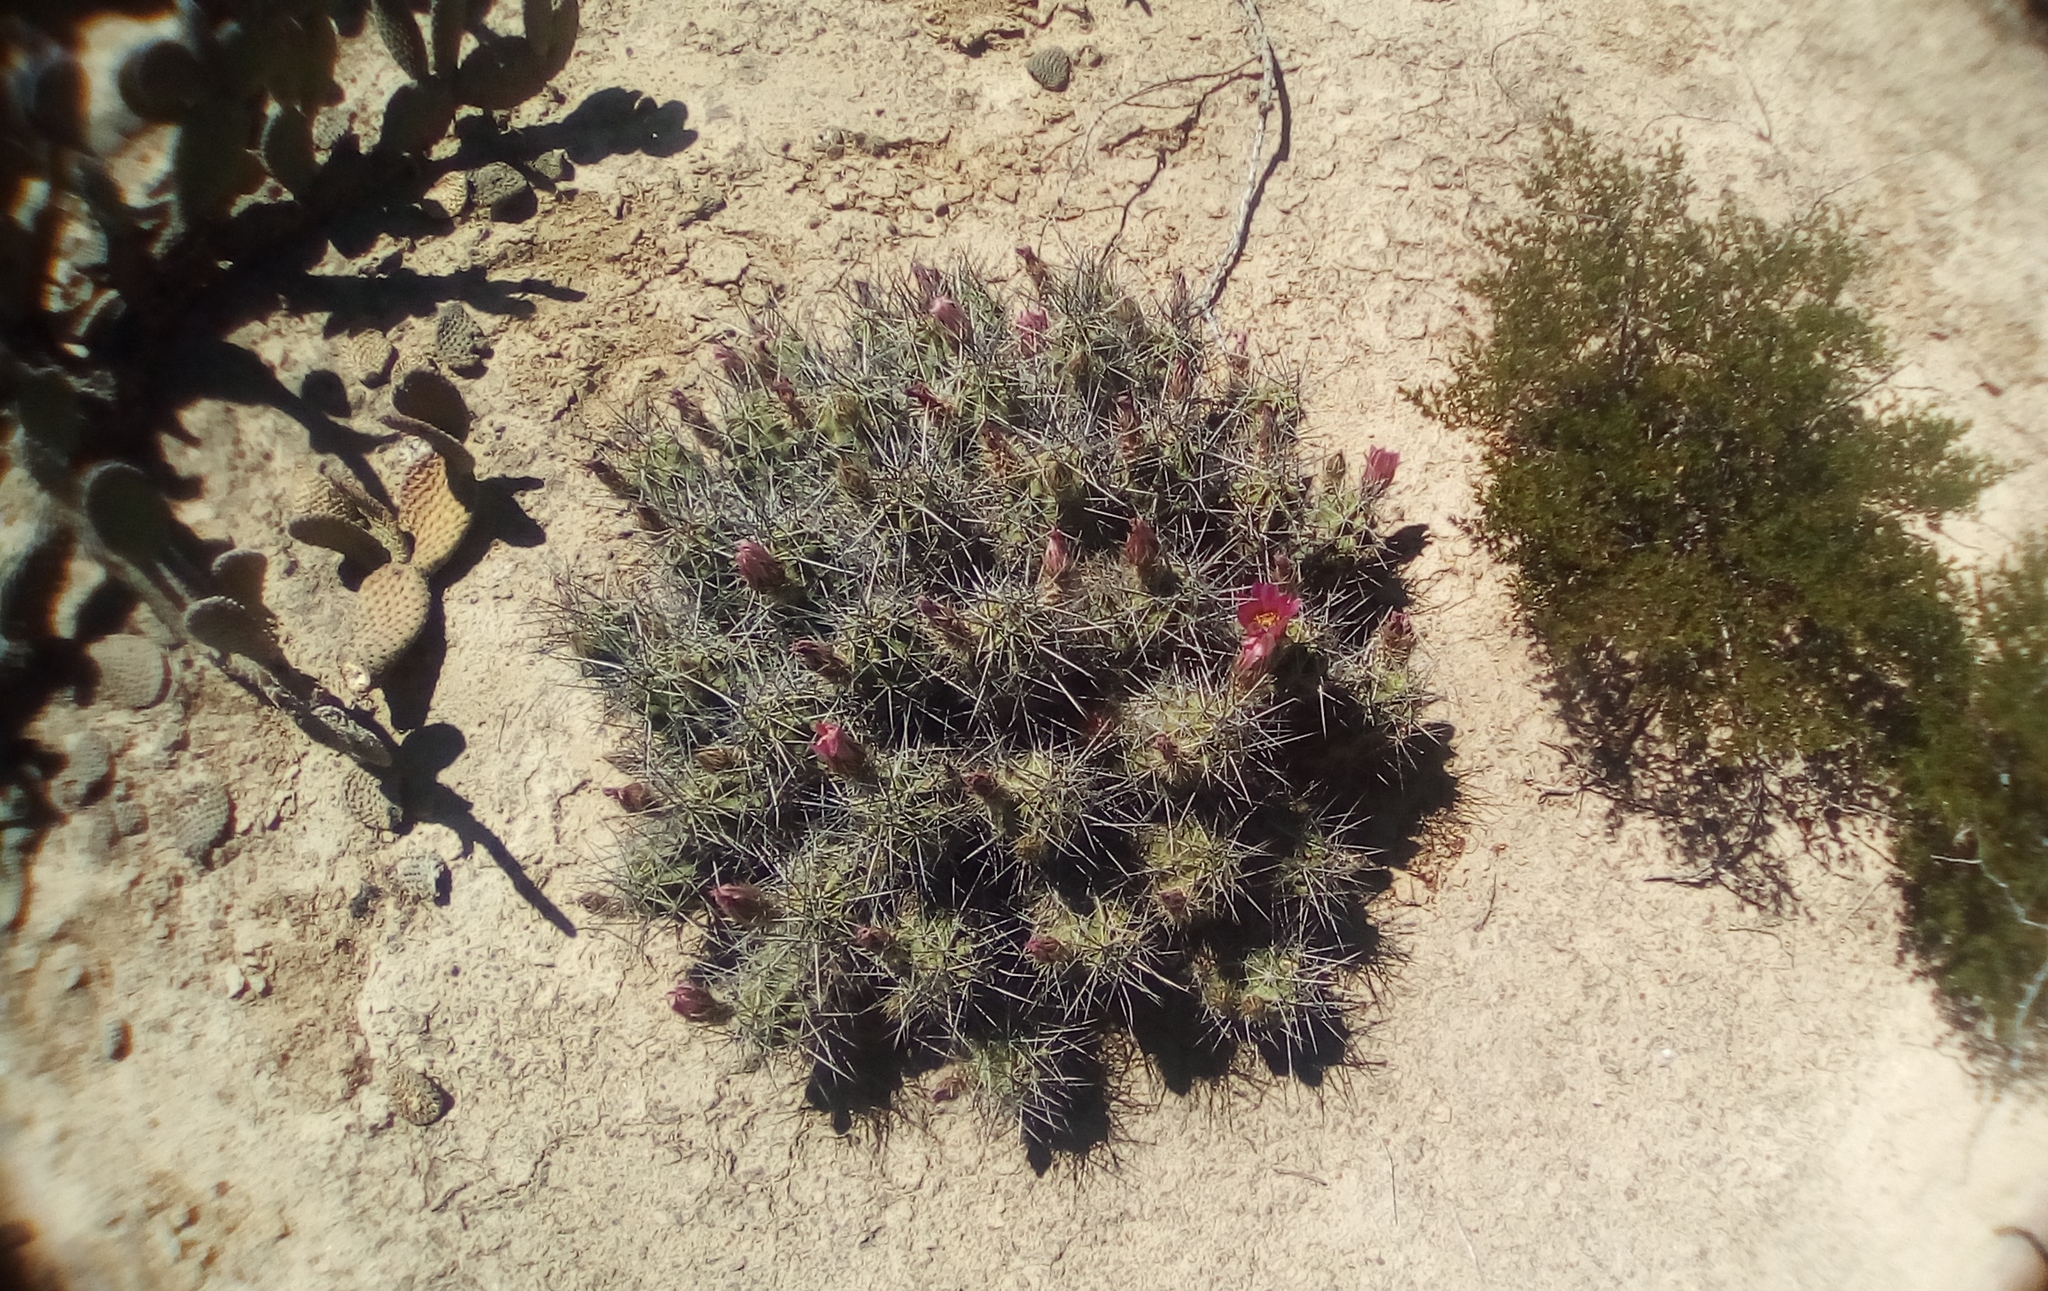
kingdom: Plantae
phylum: Tracheophyta
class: Magnoliopsida
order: Caryophyllales
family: Cactaceae
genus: Echinocactus
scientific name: Echinocactus horizonthalonius
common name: Devilshead
